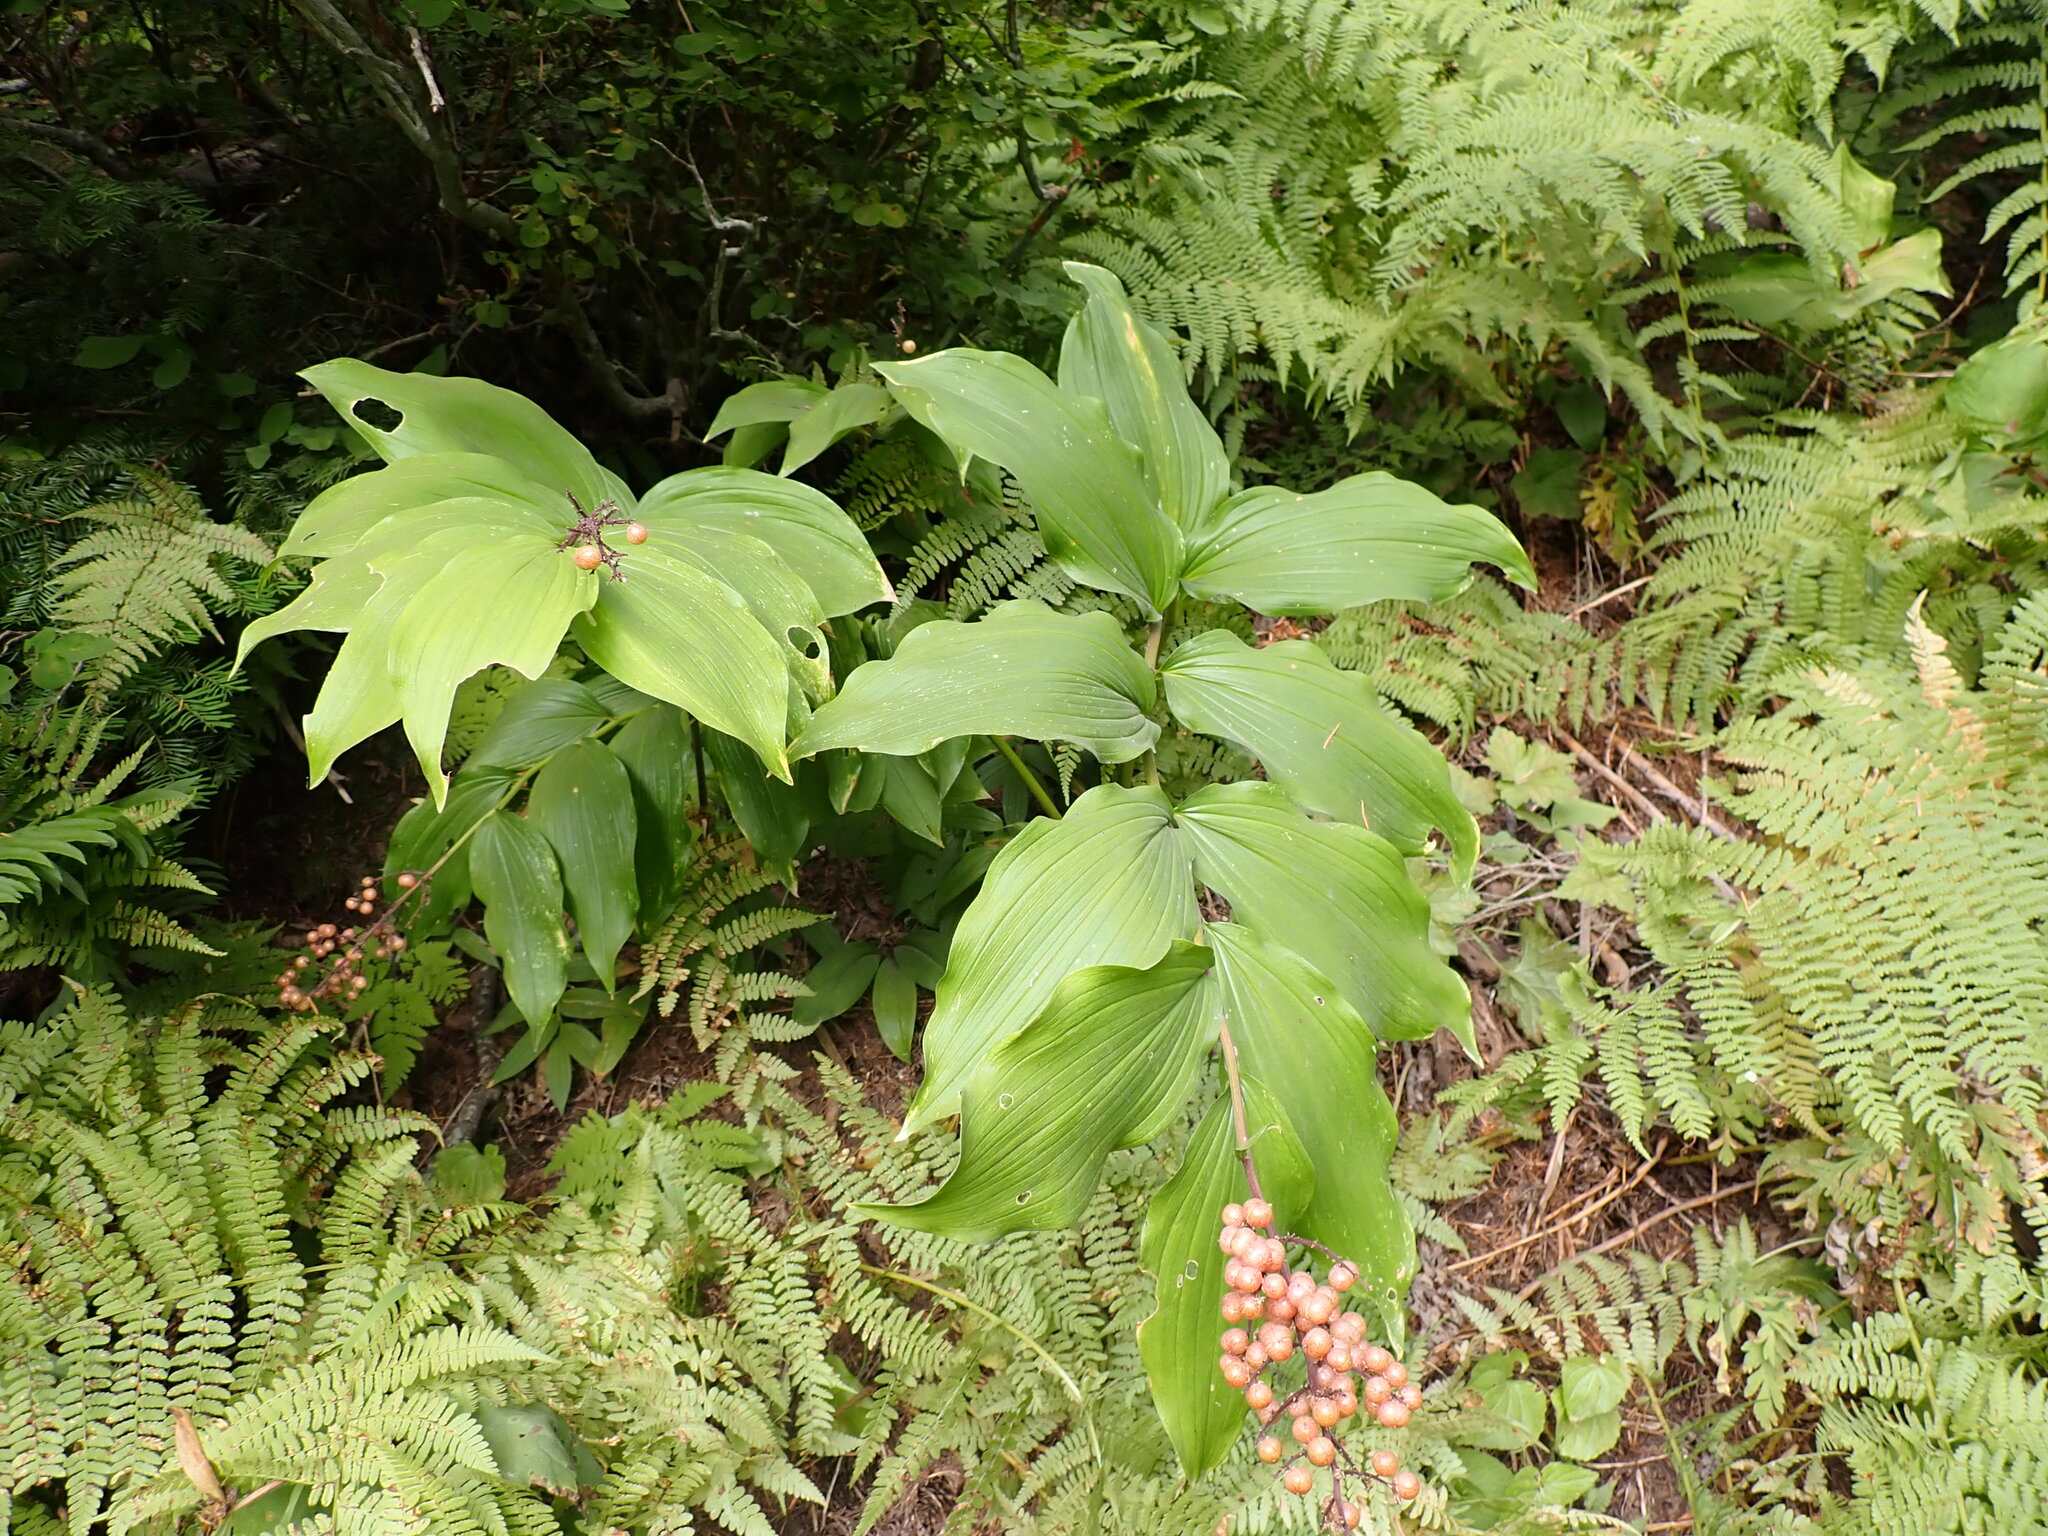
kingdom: Plantae
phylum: Tracheophyta
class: Liliopsida
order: Asparagales
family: Asparagaceae
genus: Maianthemum
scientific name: Maianthemum racemosum
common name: False spikenard
